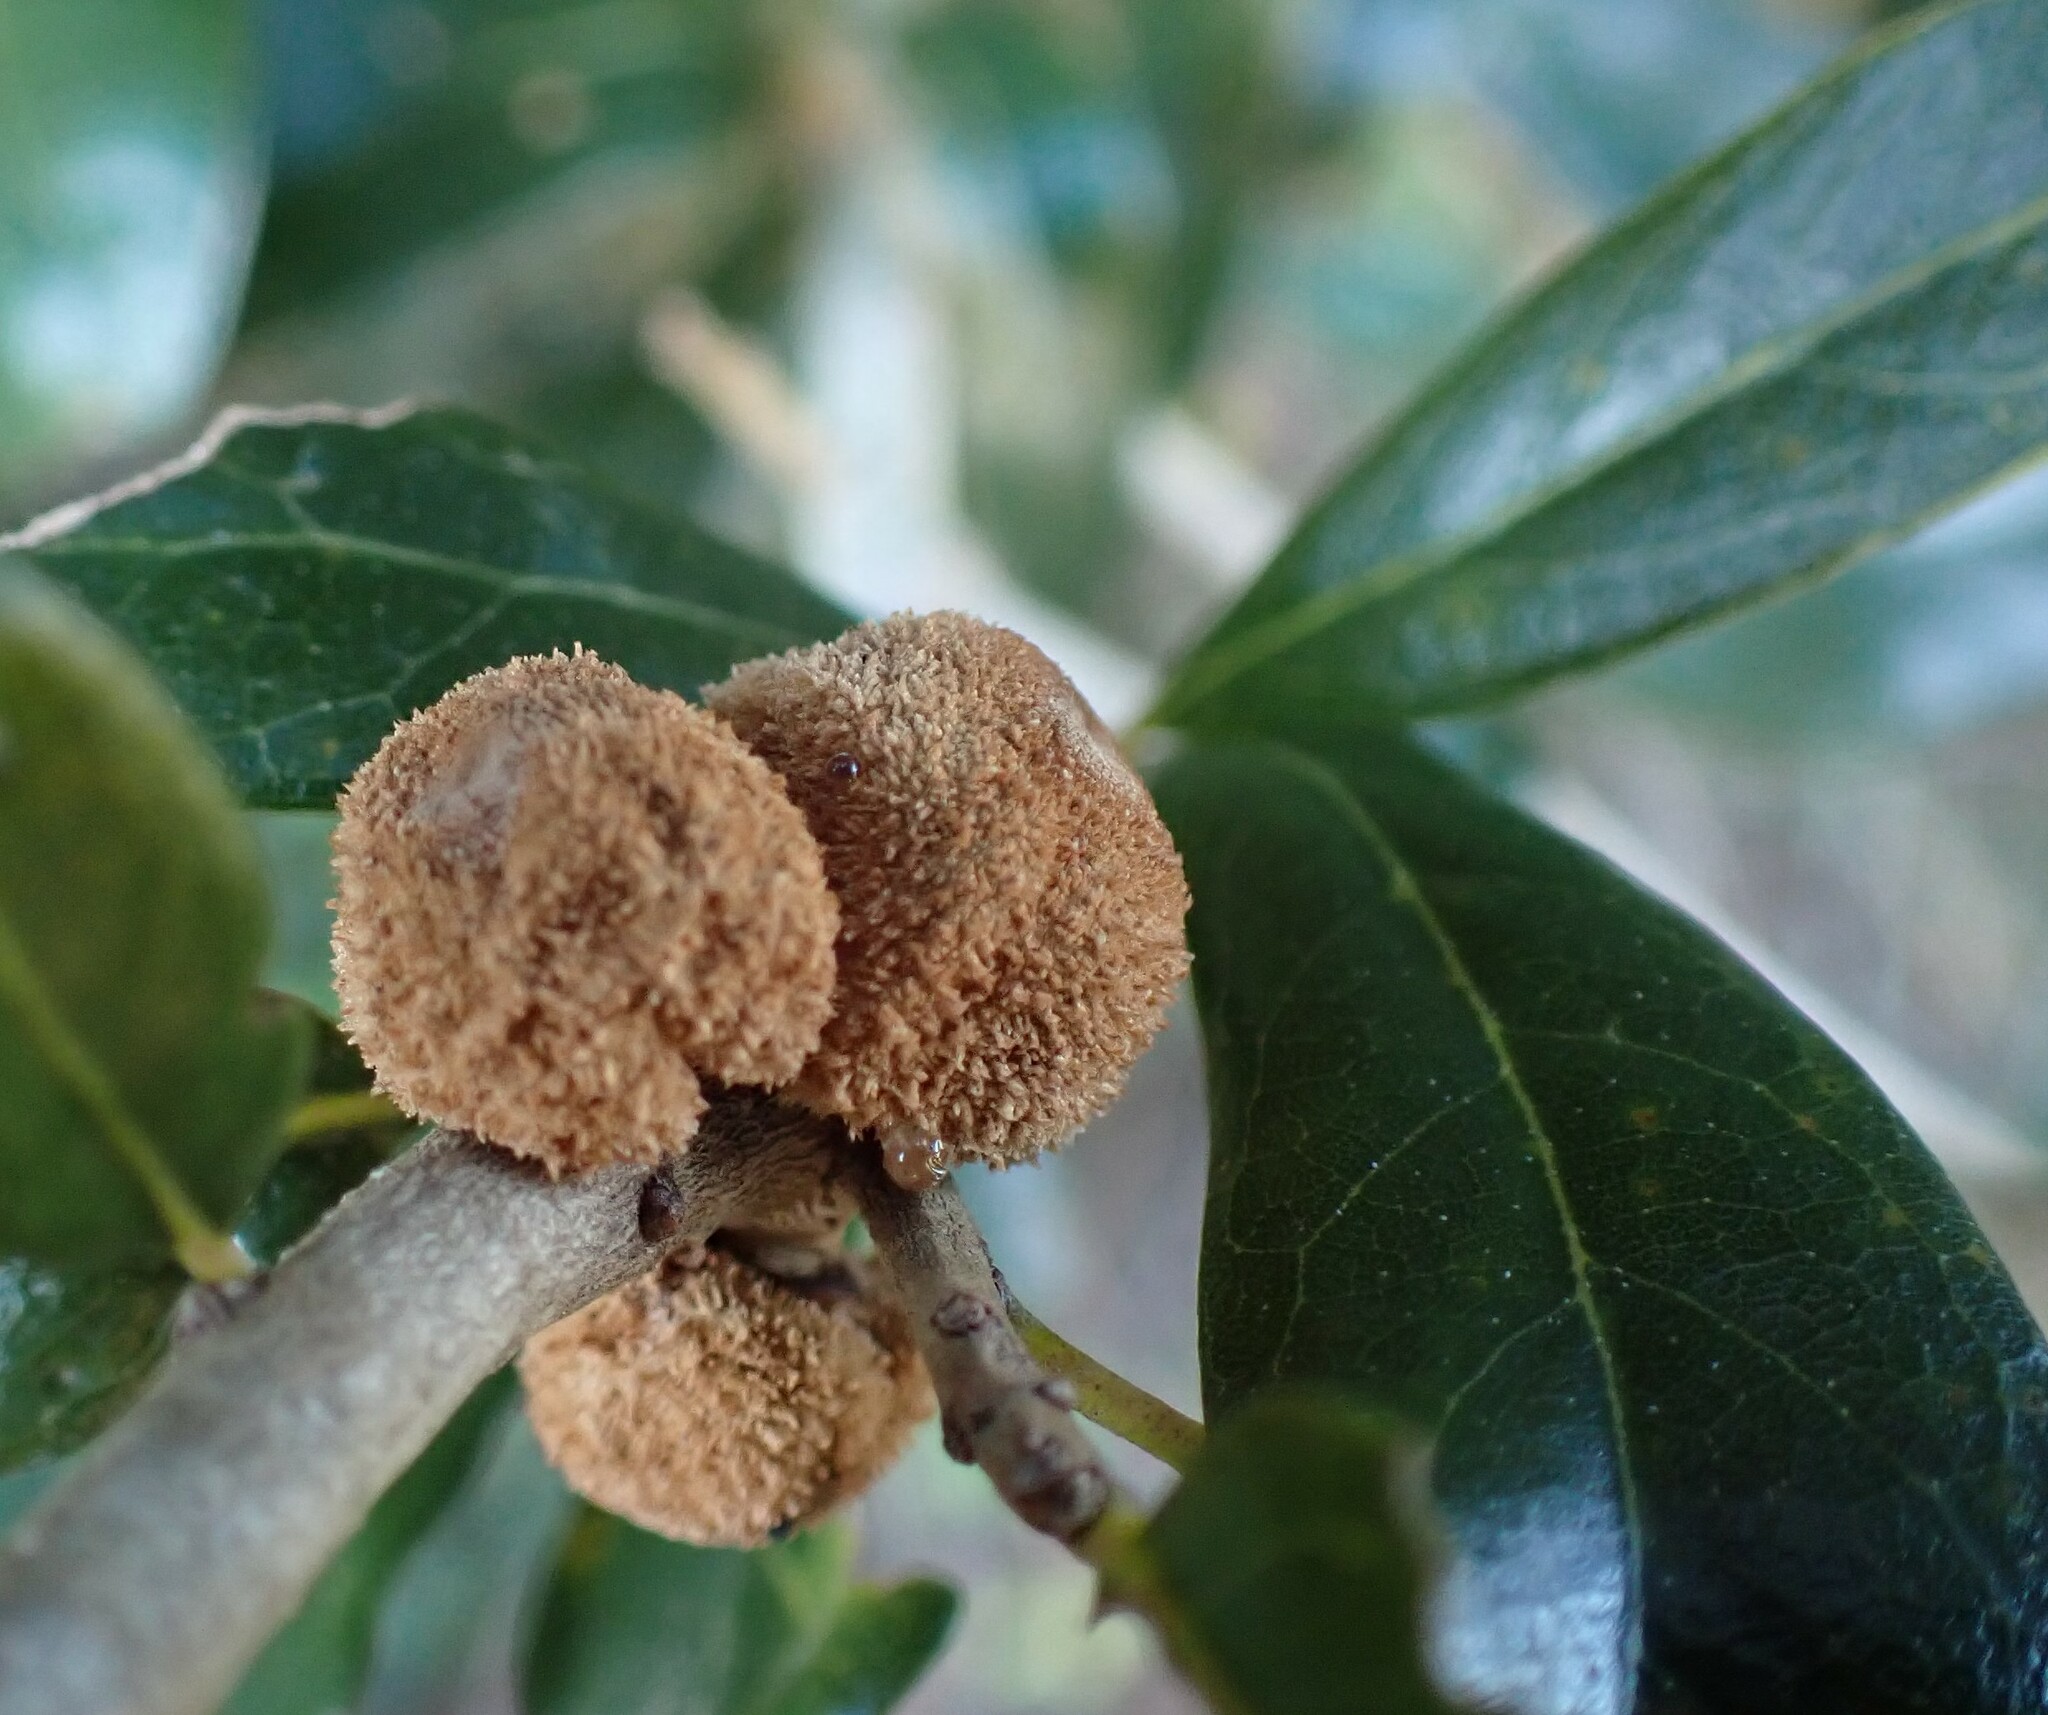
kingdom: Animalia
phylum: Arthropoda
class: Insecta
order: Hymenoptera
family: Cynipidae
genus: Disholcaspis
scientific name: Disholcaspis
